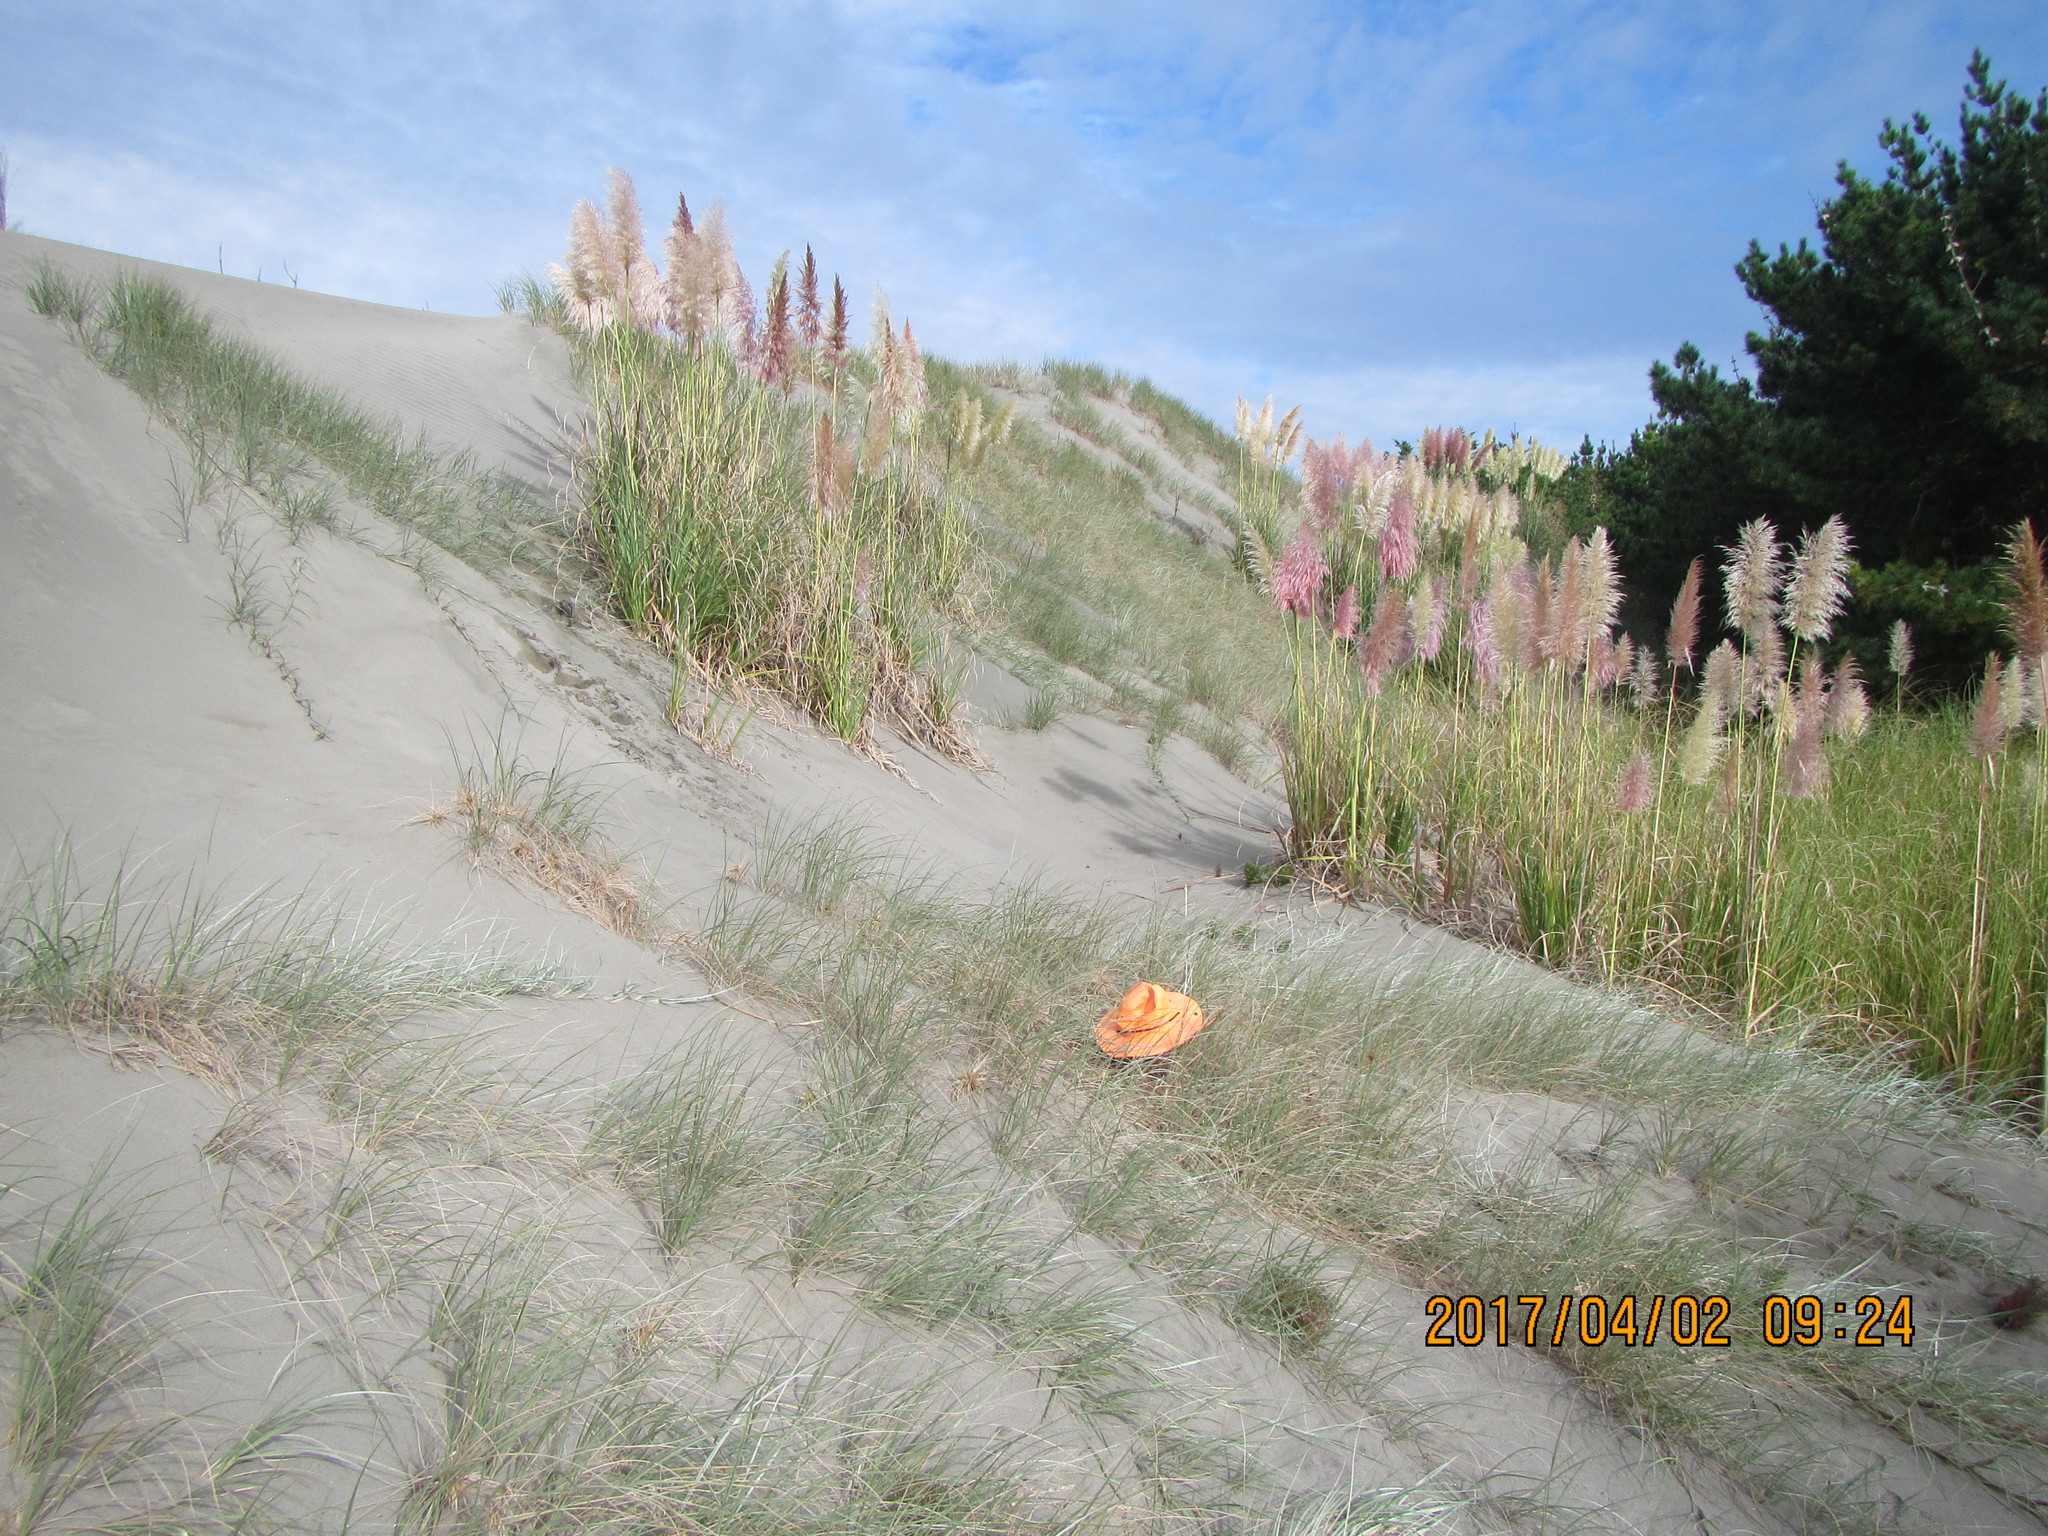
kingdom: Plantae
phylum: Tracheophyta
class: Liliopsida
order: Poales
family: Poaceae
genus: Spinifex
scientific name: Spinifex sericeus
